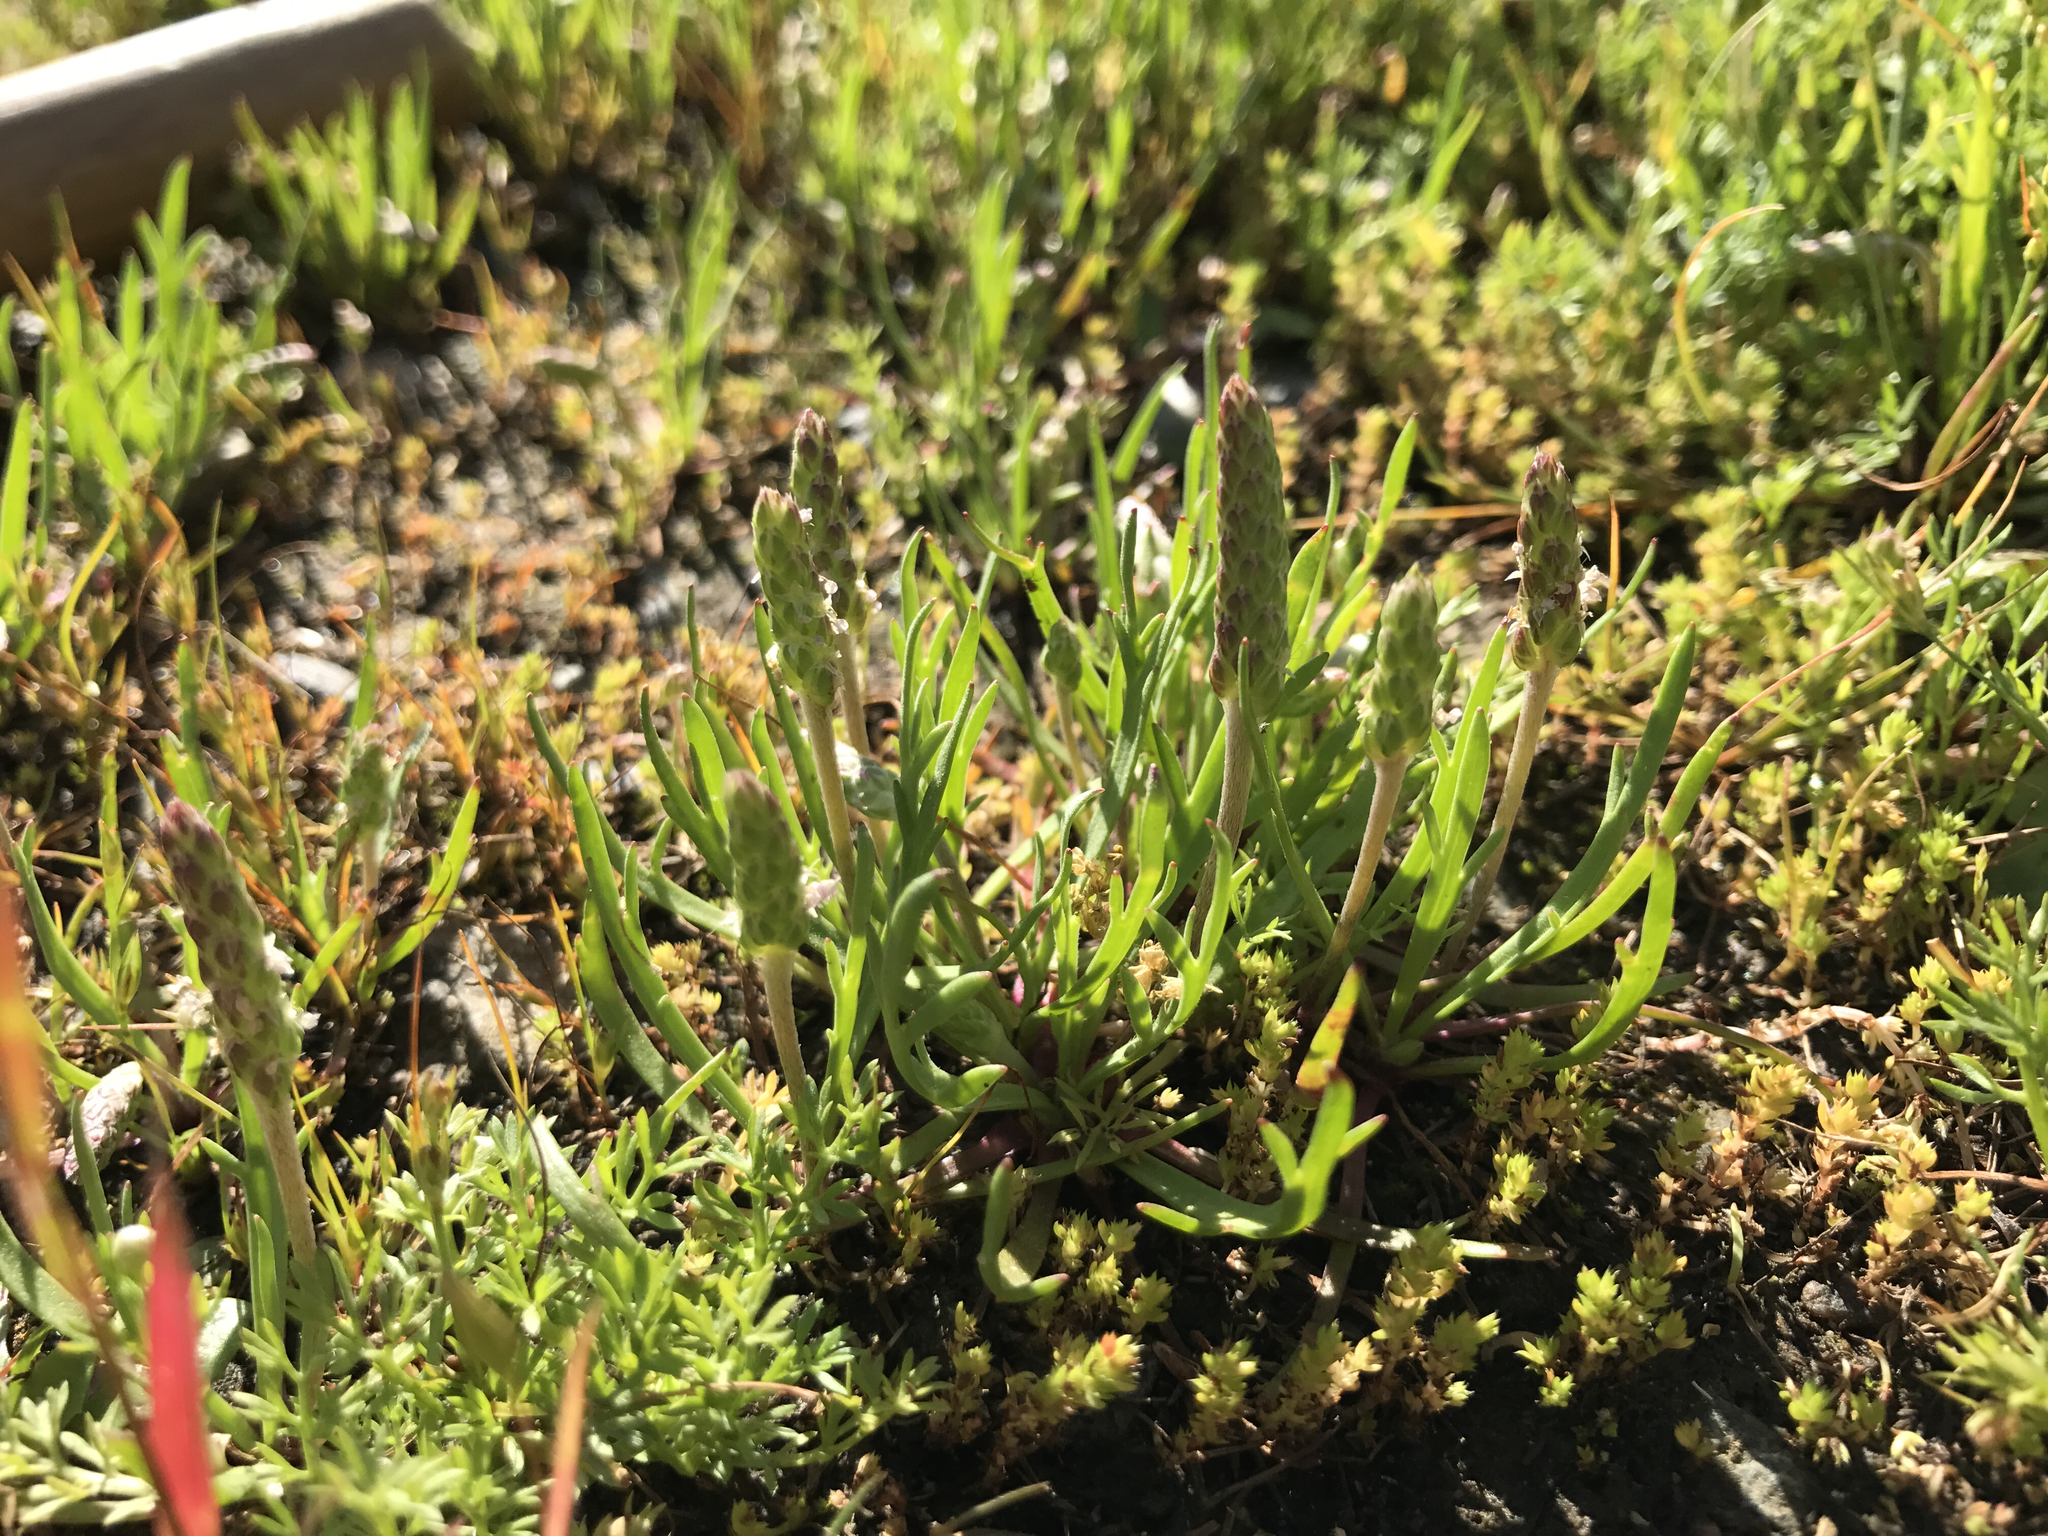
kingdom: Plantae
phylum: Tracheophyta
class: Magnoliopsida
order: Lamiales
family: Plantaginaceae
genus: Plantago
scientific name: Plantago coronopus
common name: Buck's-horn plantain
